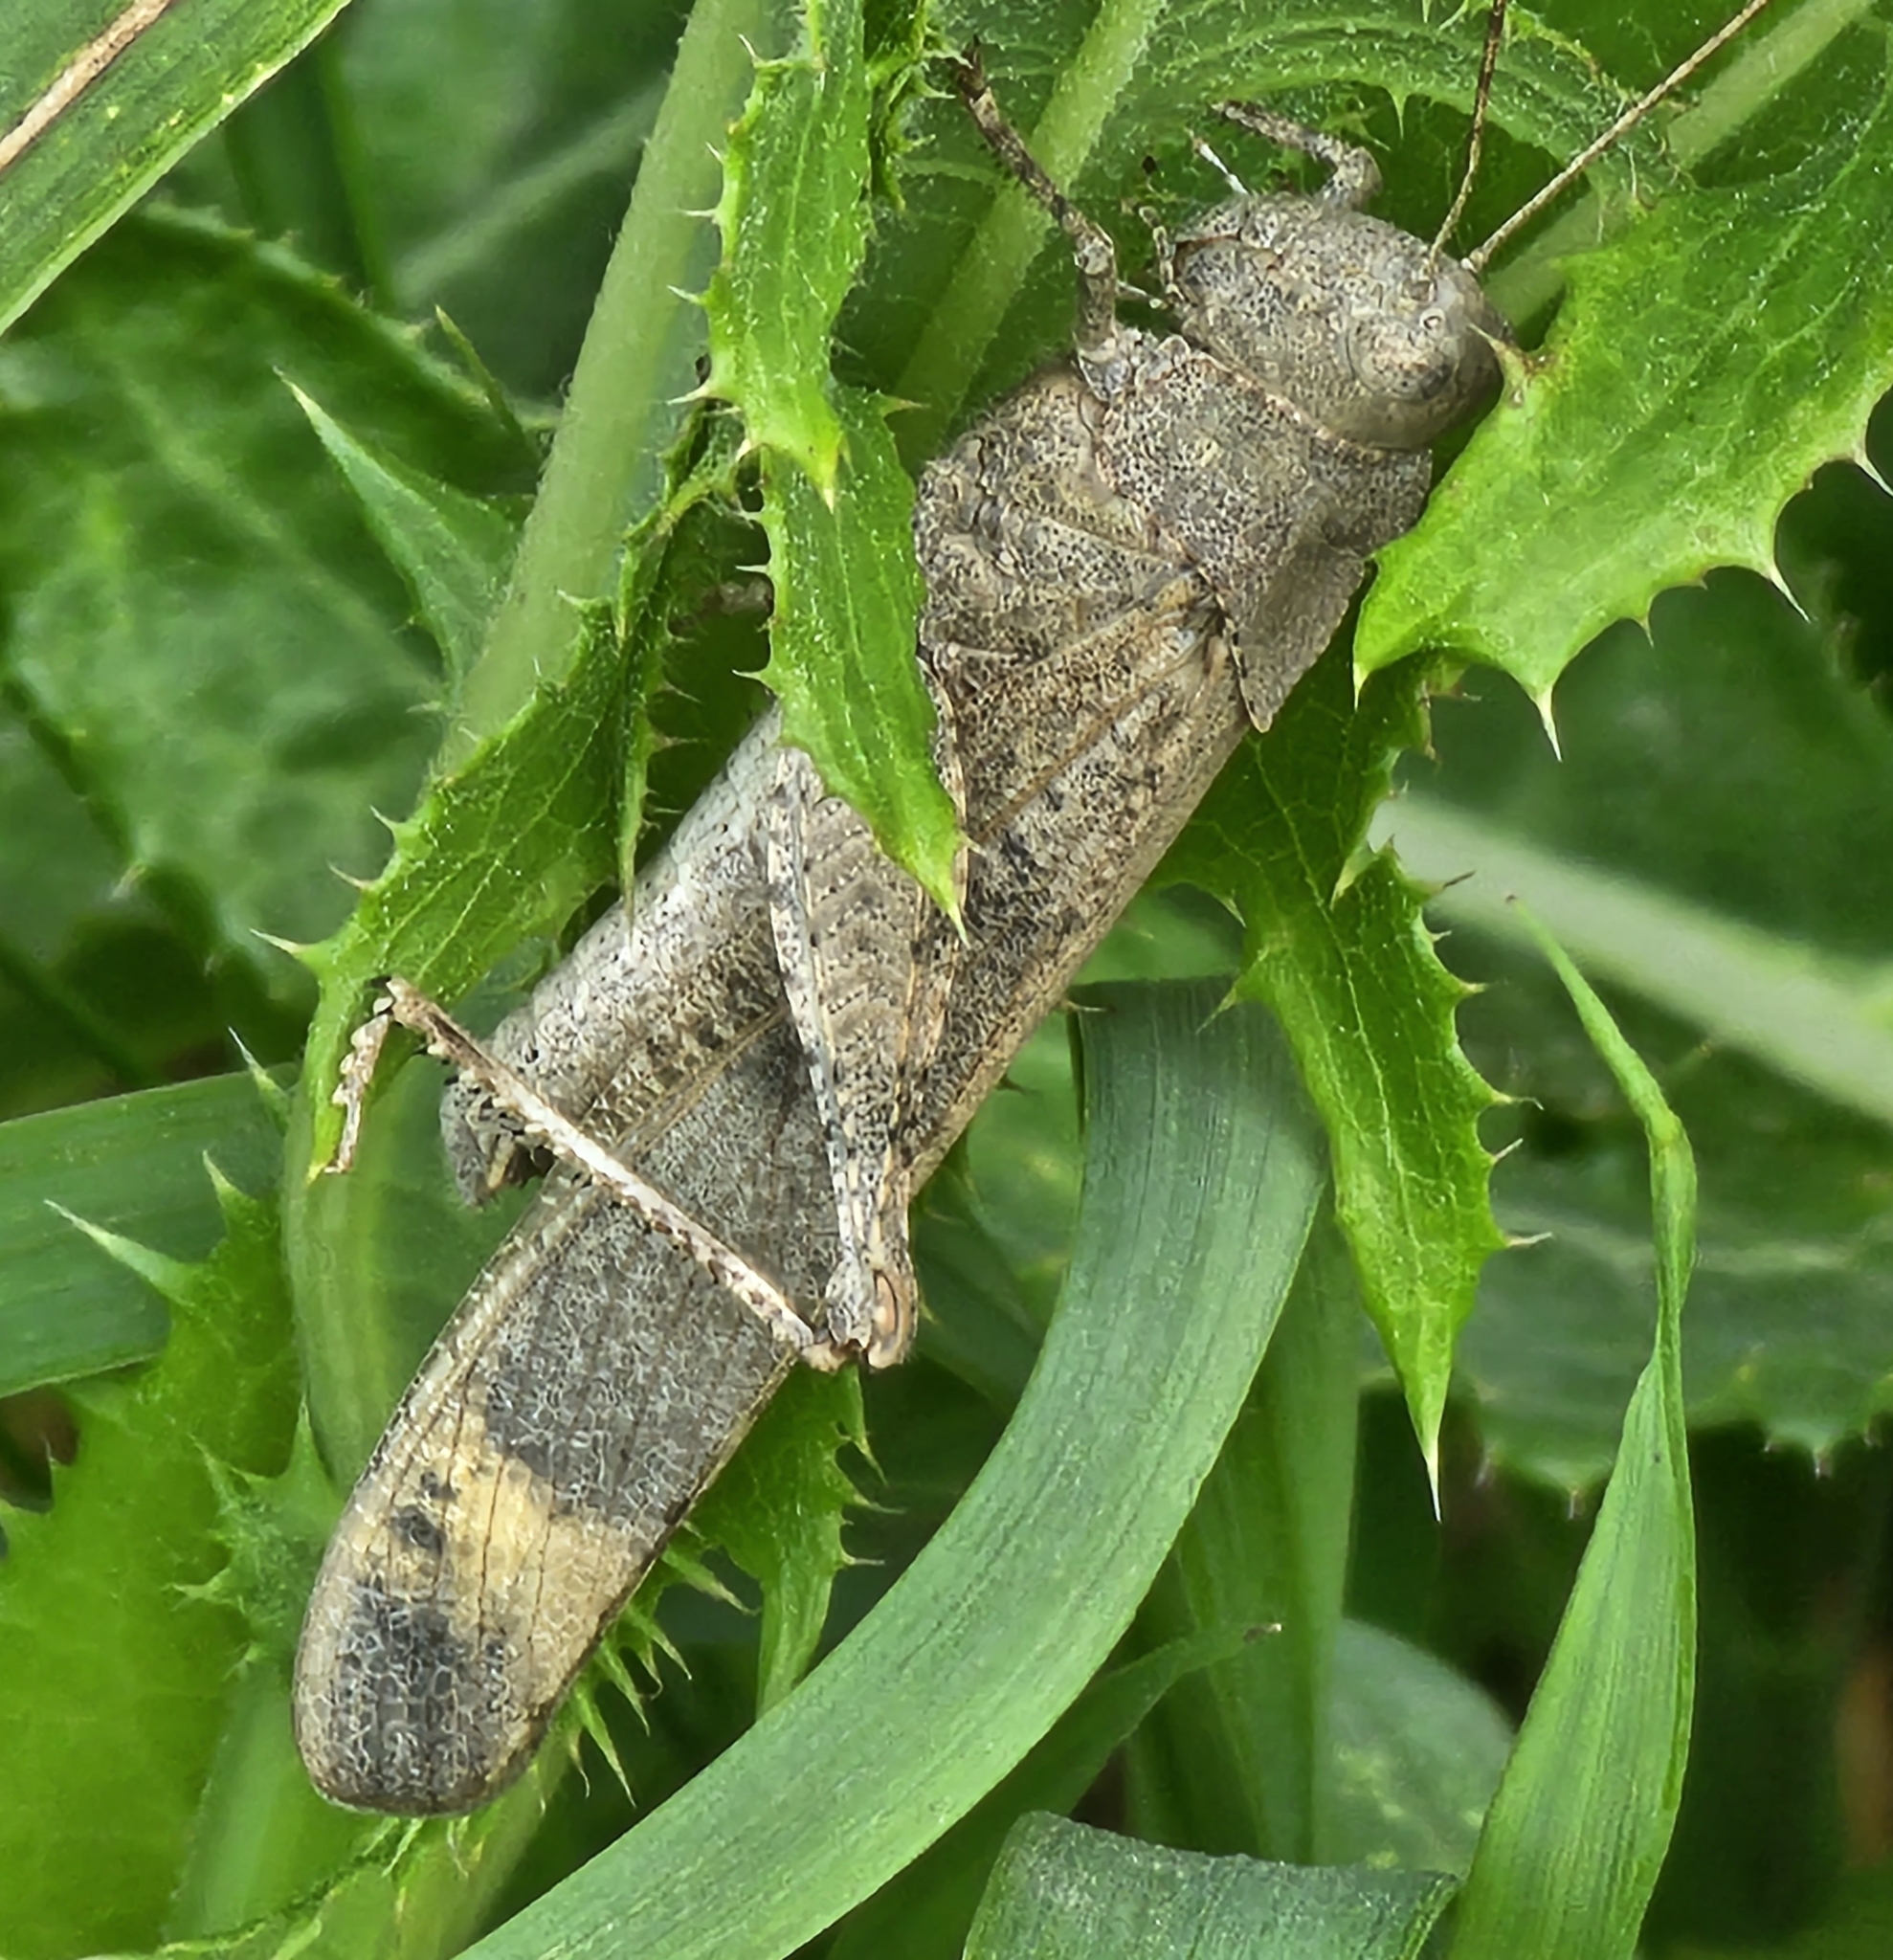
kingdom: Animalia
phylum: Arthropoda
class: Insecta
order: Orthoptera
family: Acrididae
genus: Dissosteira
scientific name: Dissosteira carolina
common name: Carolina grasshopper
